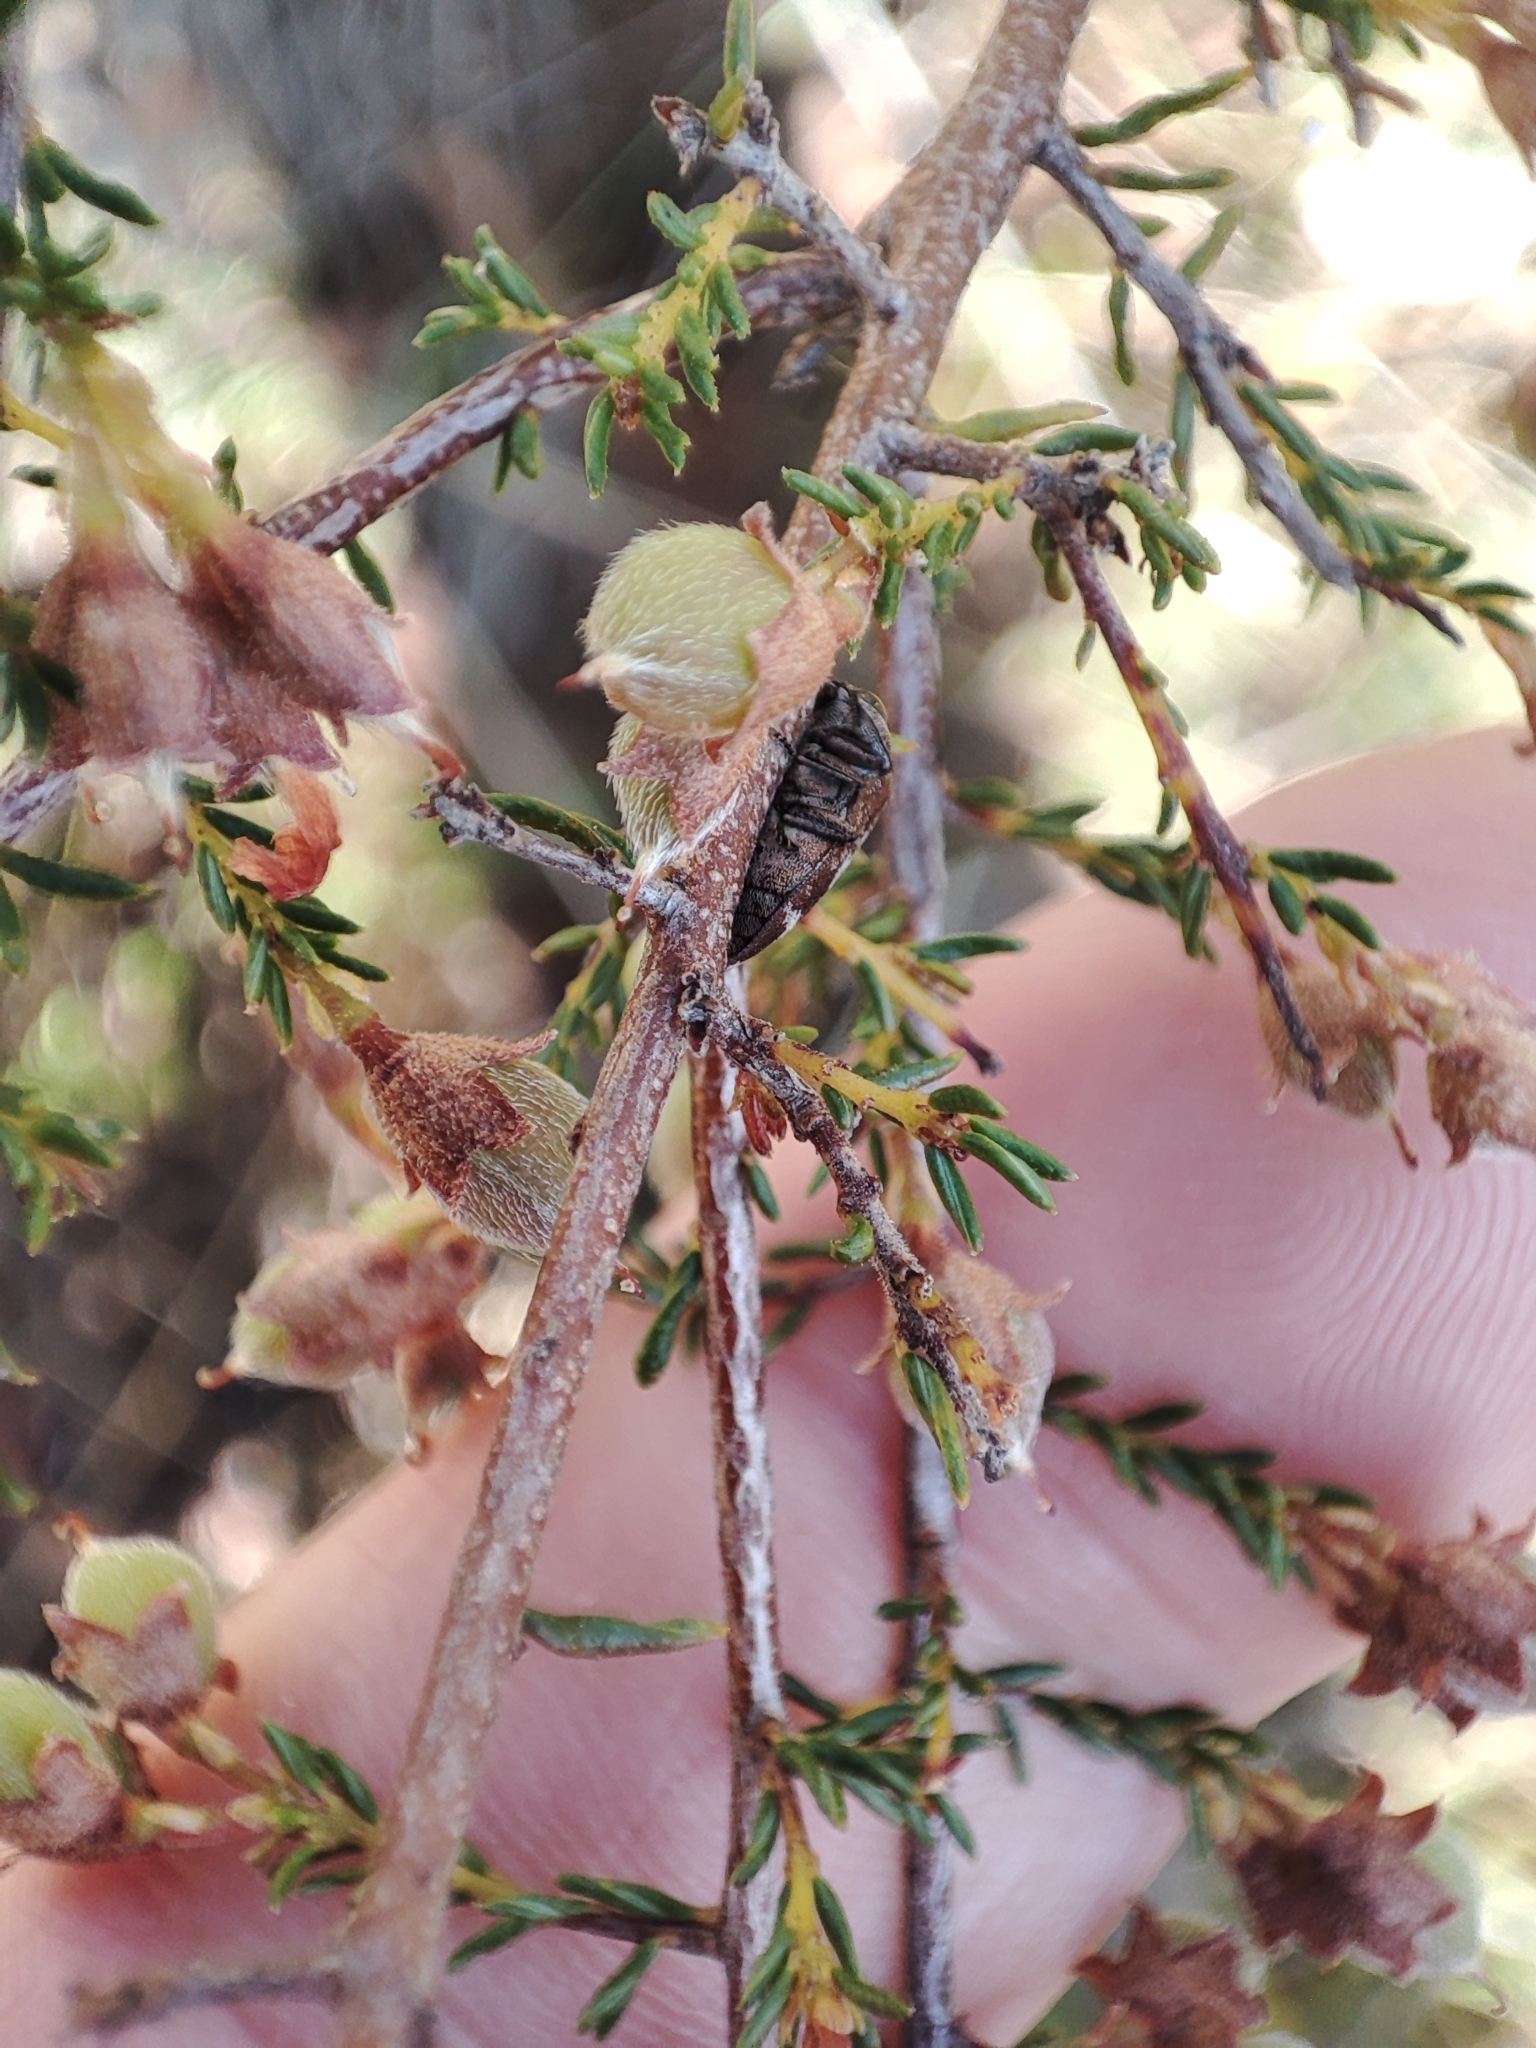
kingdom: Plantae
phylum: Tracheophyta
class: Magnoliopsida
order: Fabales
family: Fabaceae
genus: Pultenaea
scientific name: Pultenaea procumbens
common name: Heathy bush-pea
